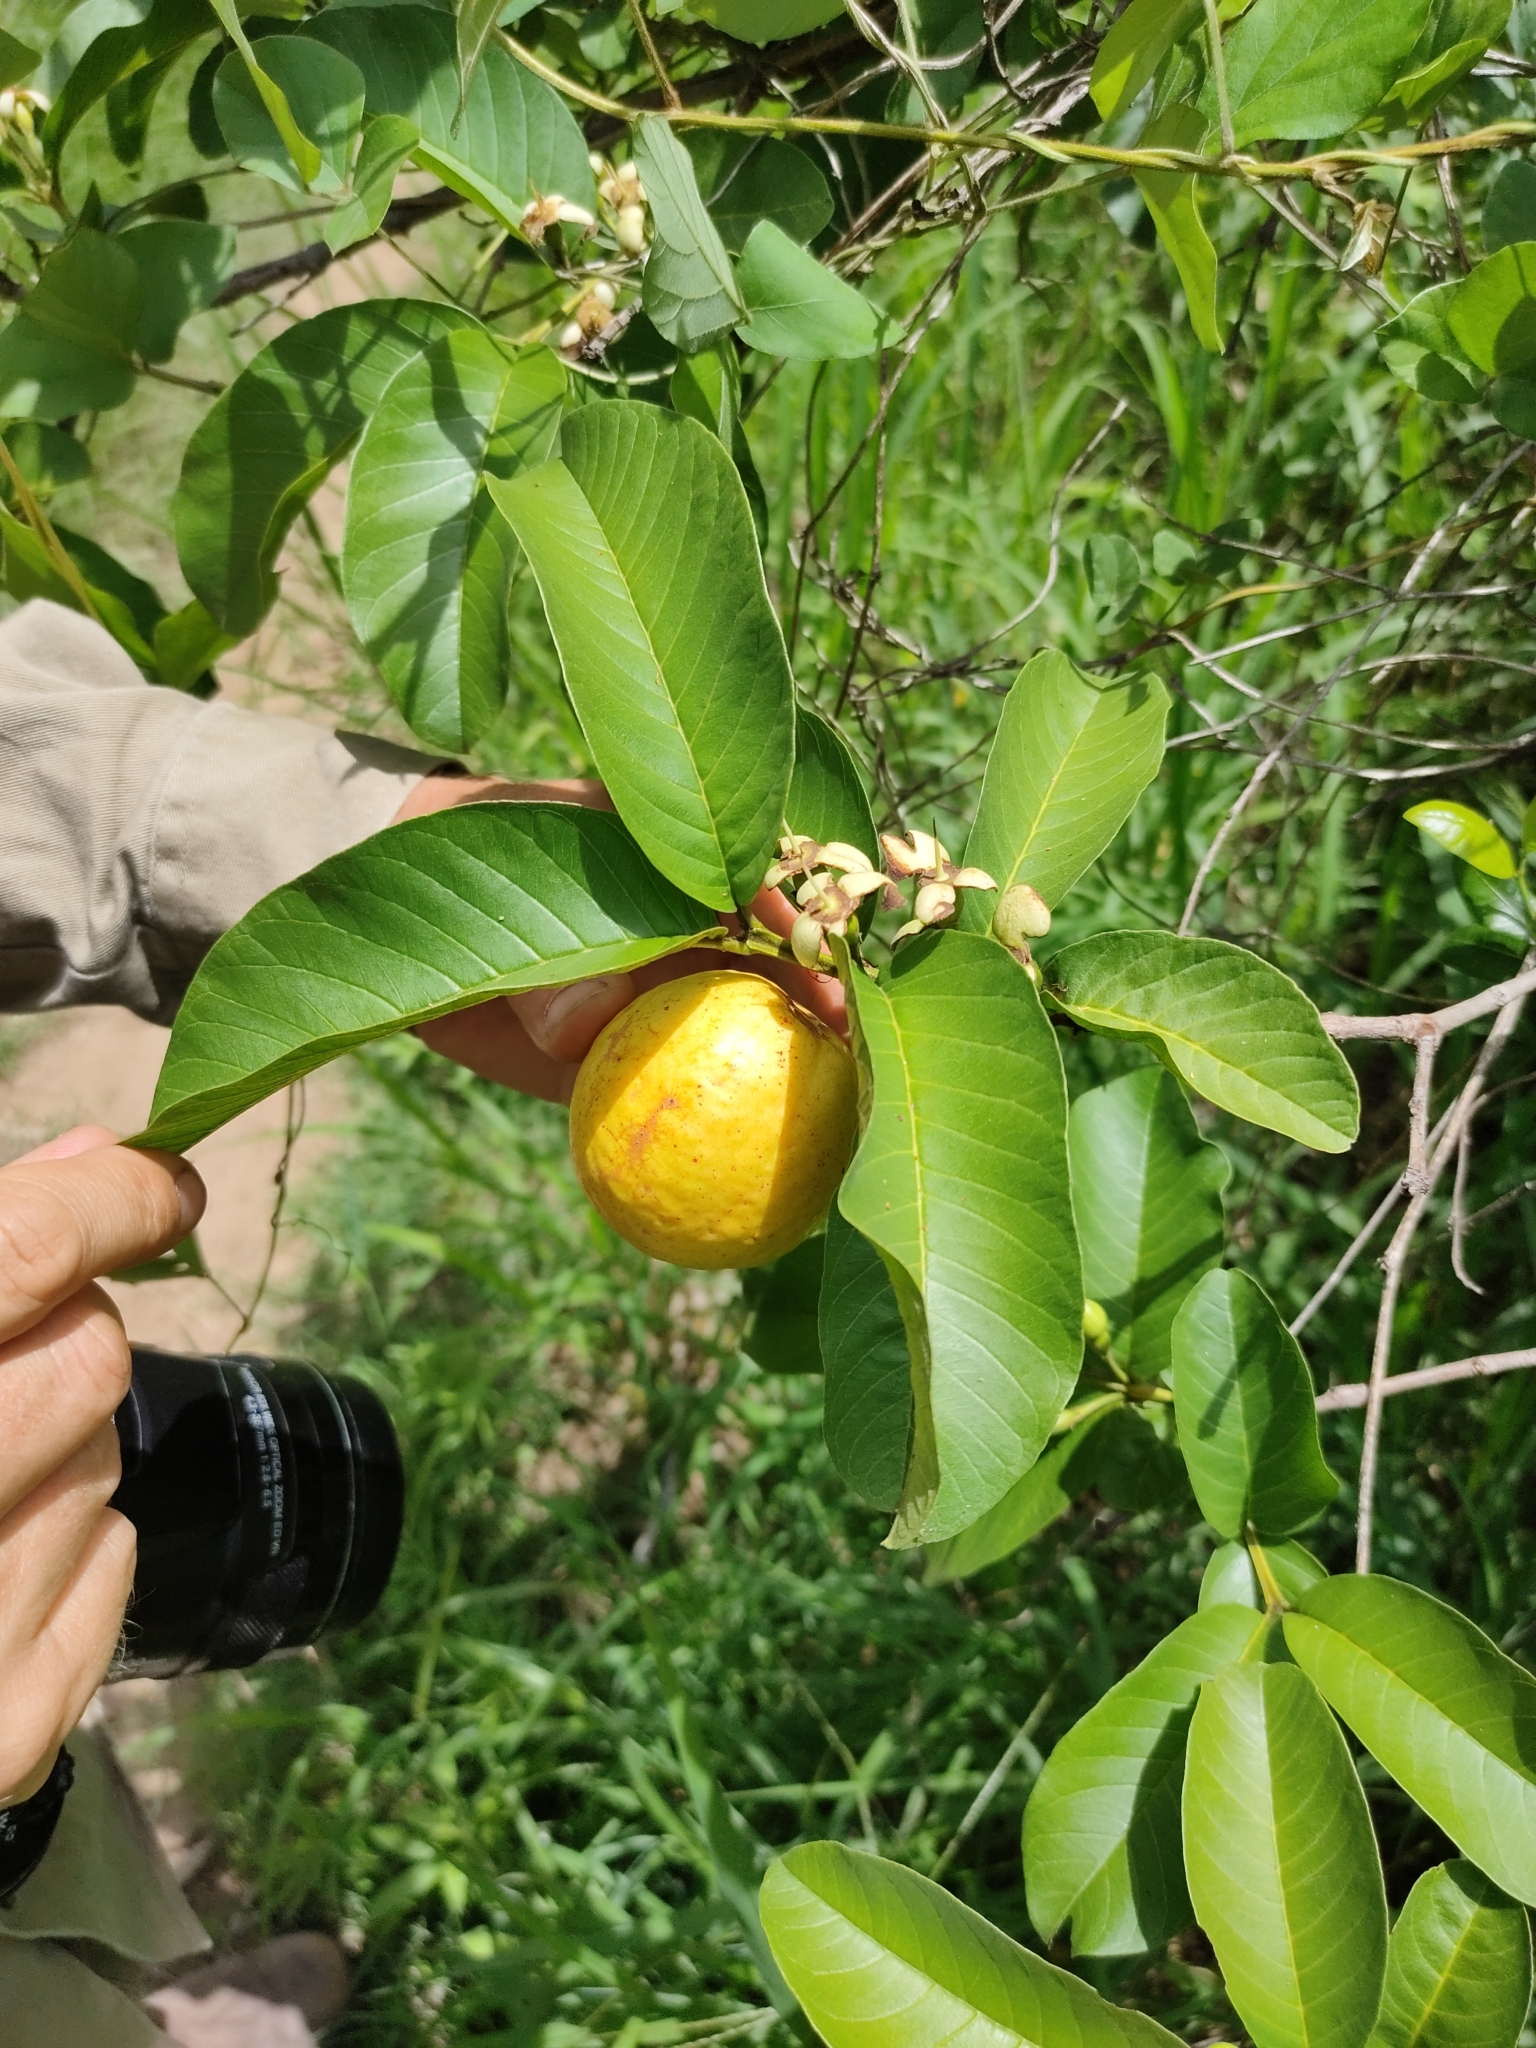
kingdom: Plantae
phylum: Tracheophyta
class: Magnoliopsida
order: Myrtales
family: Myrtaceae
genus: Psidium
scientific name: Psidium guajava
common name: Guava
